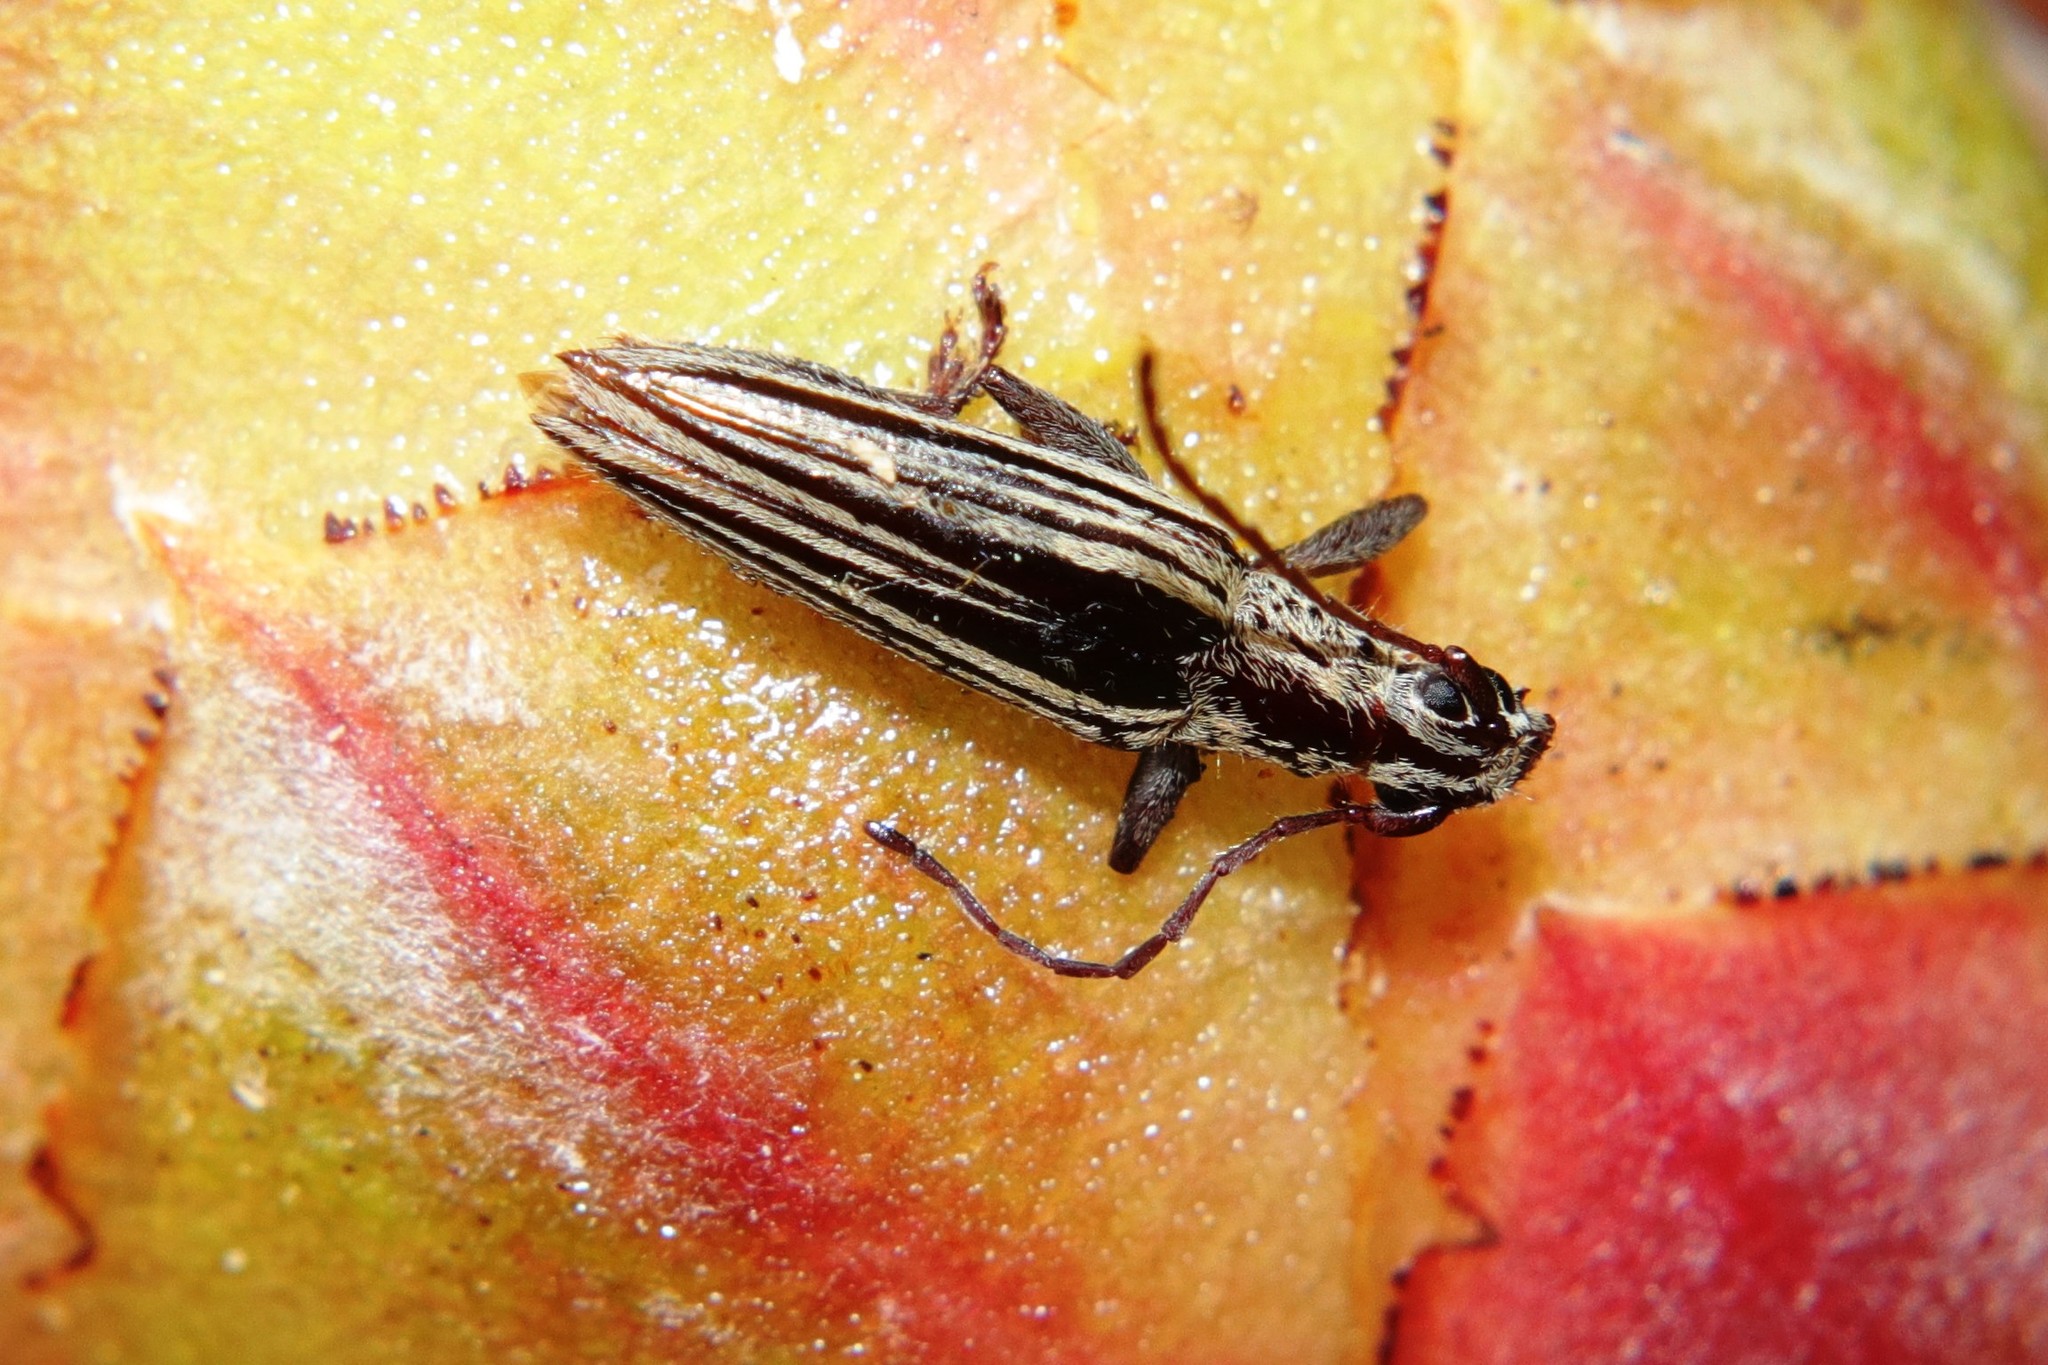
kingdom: Animalia
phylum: Arthropoda
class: Insecta
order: Coleoptera
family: Cerambycidae
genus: Coptomma
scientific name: Coptomma sulcatum
